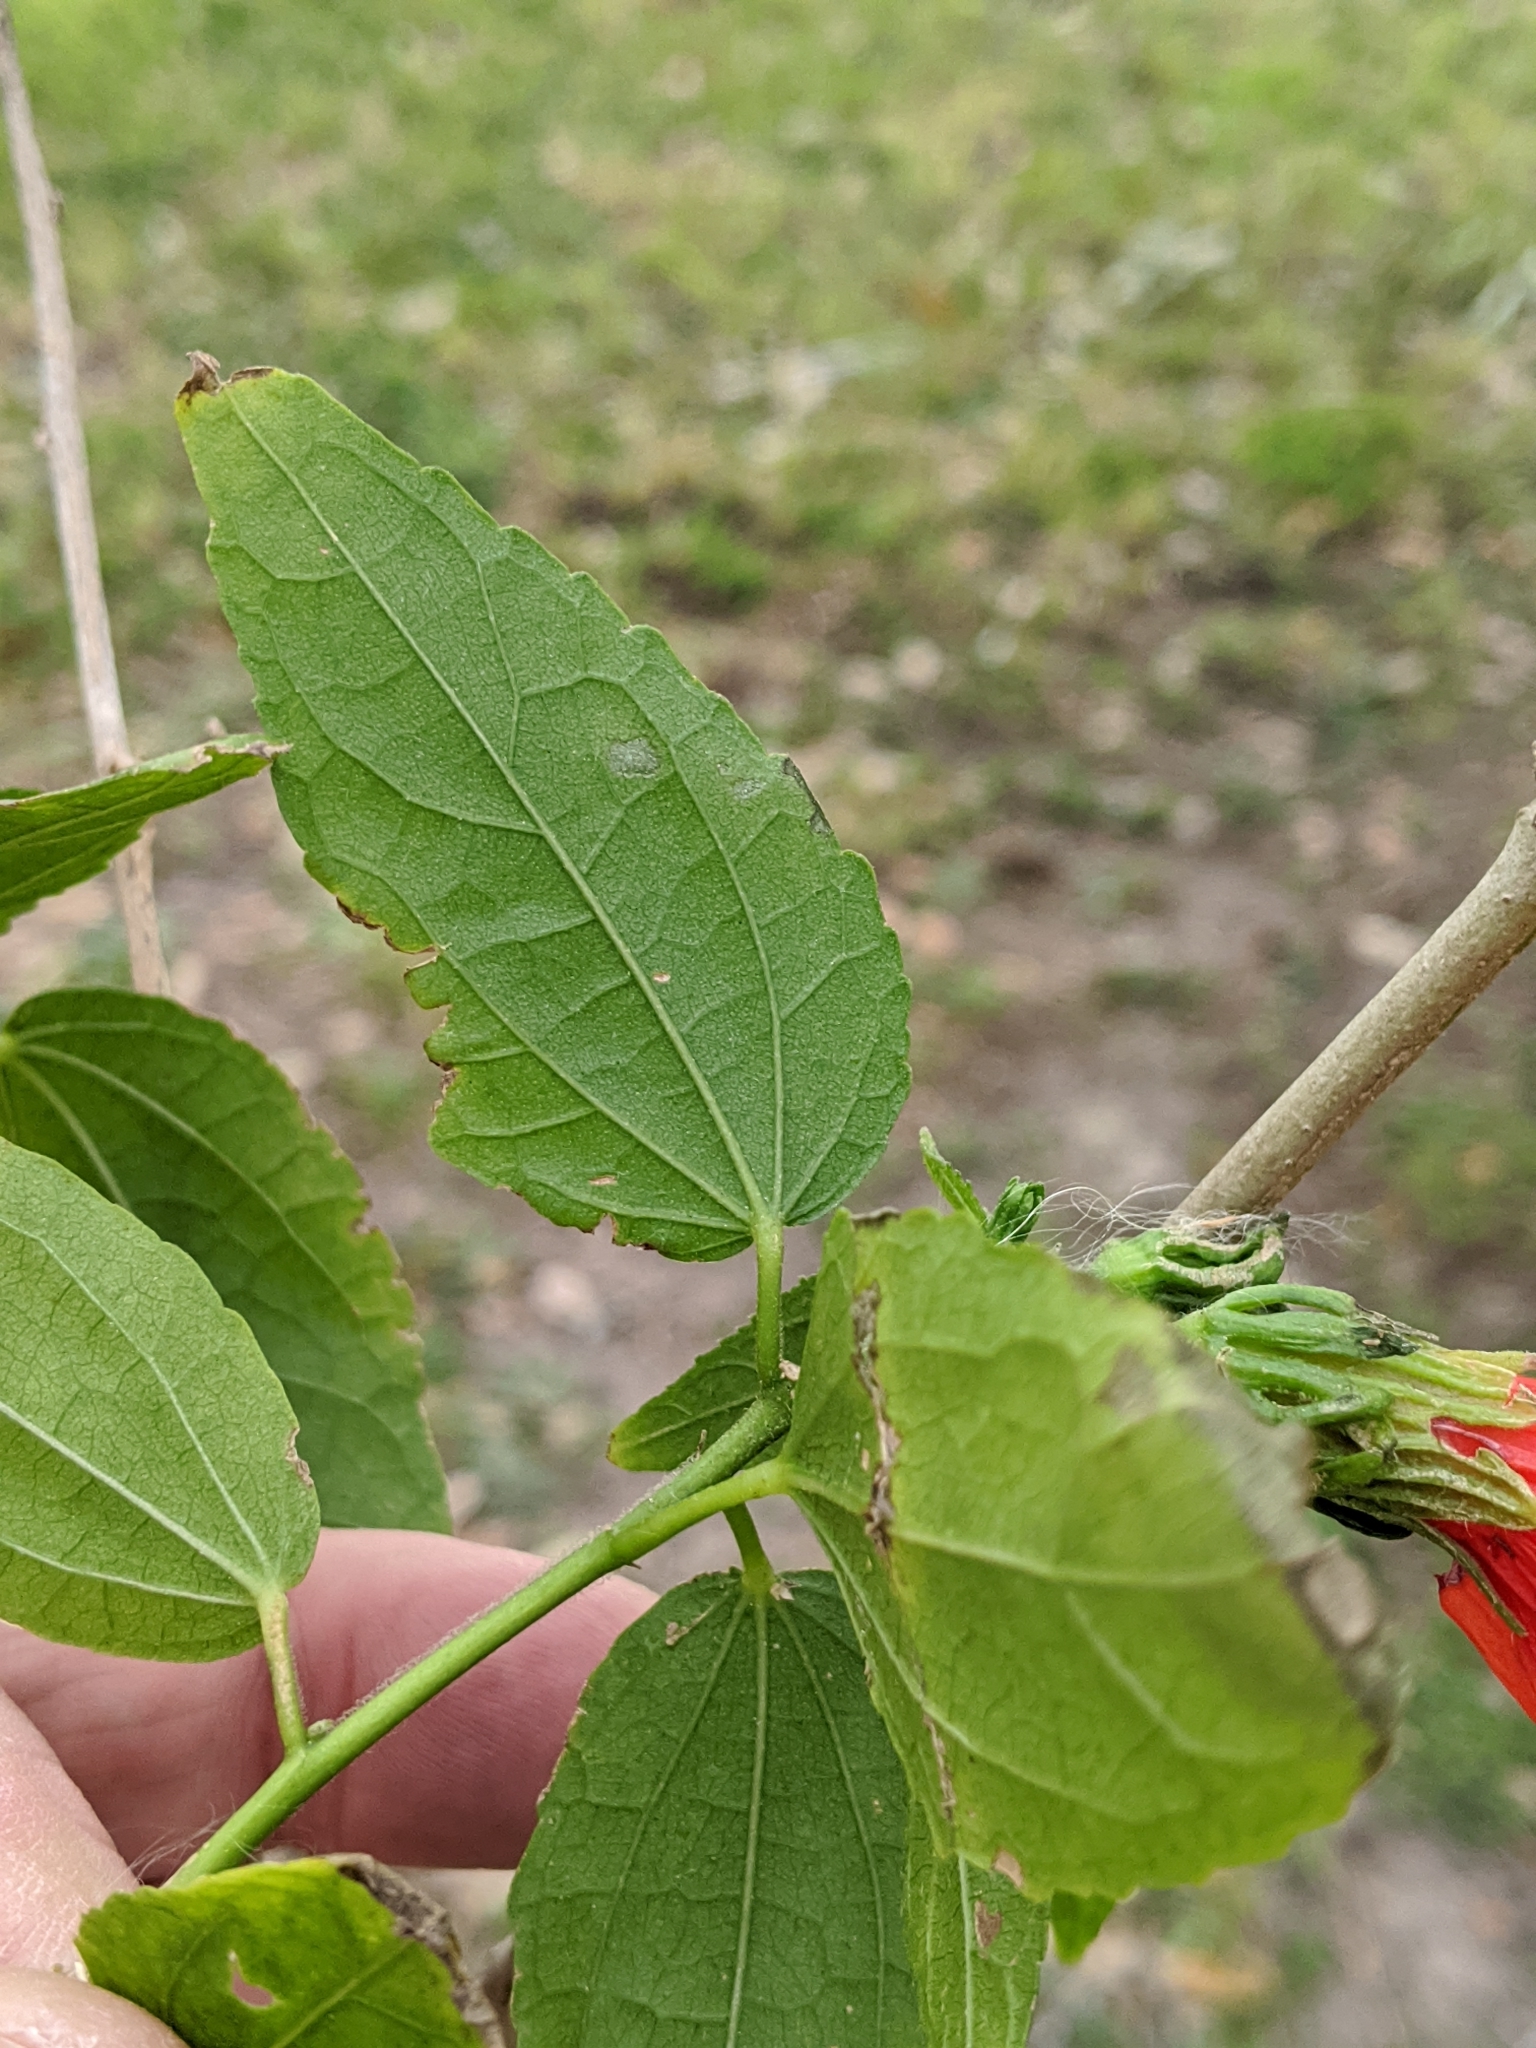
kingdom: Plantae
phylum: Tracheophyta
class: Magnoliopsida
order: Malvales
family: Malvaceae
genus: Malvaviscus
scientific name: Malvaviscus penduliflorus
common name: Mazapan
